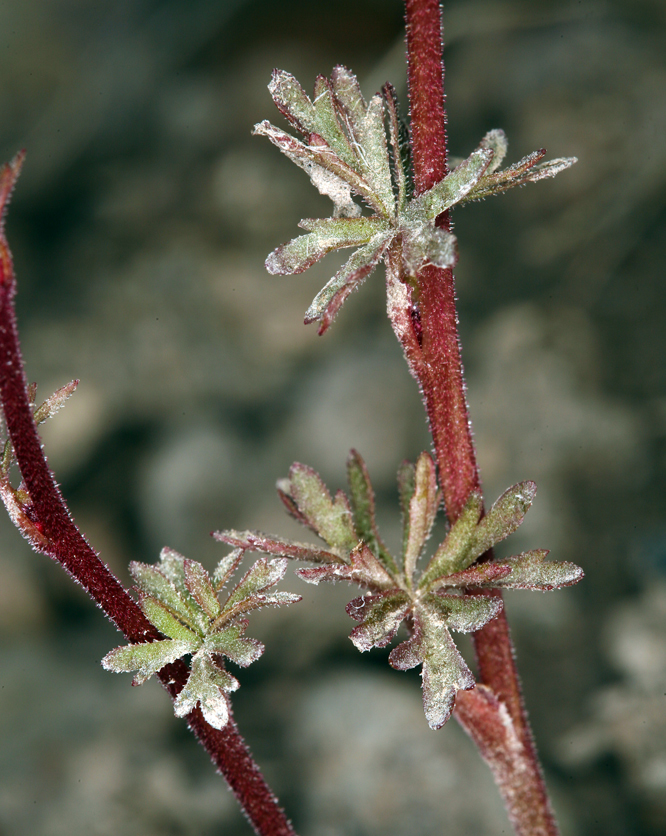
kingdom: Plantae
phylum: Tracheophyta
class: Magnoliopsida
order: Saxifragales
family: Saxifragaceae
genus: Lithophragma
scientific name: Lithophragma glabrum
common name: Bulbous prairie-star
